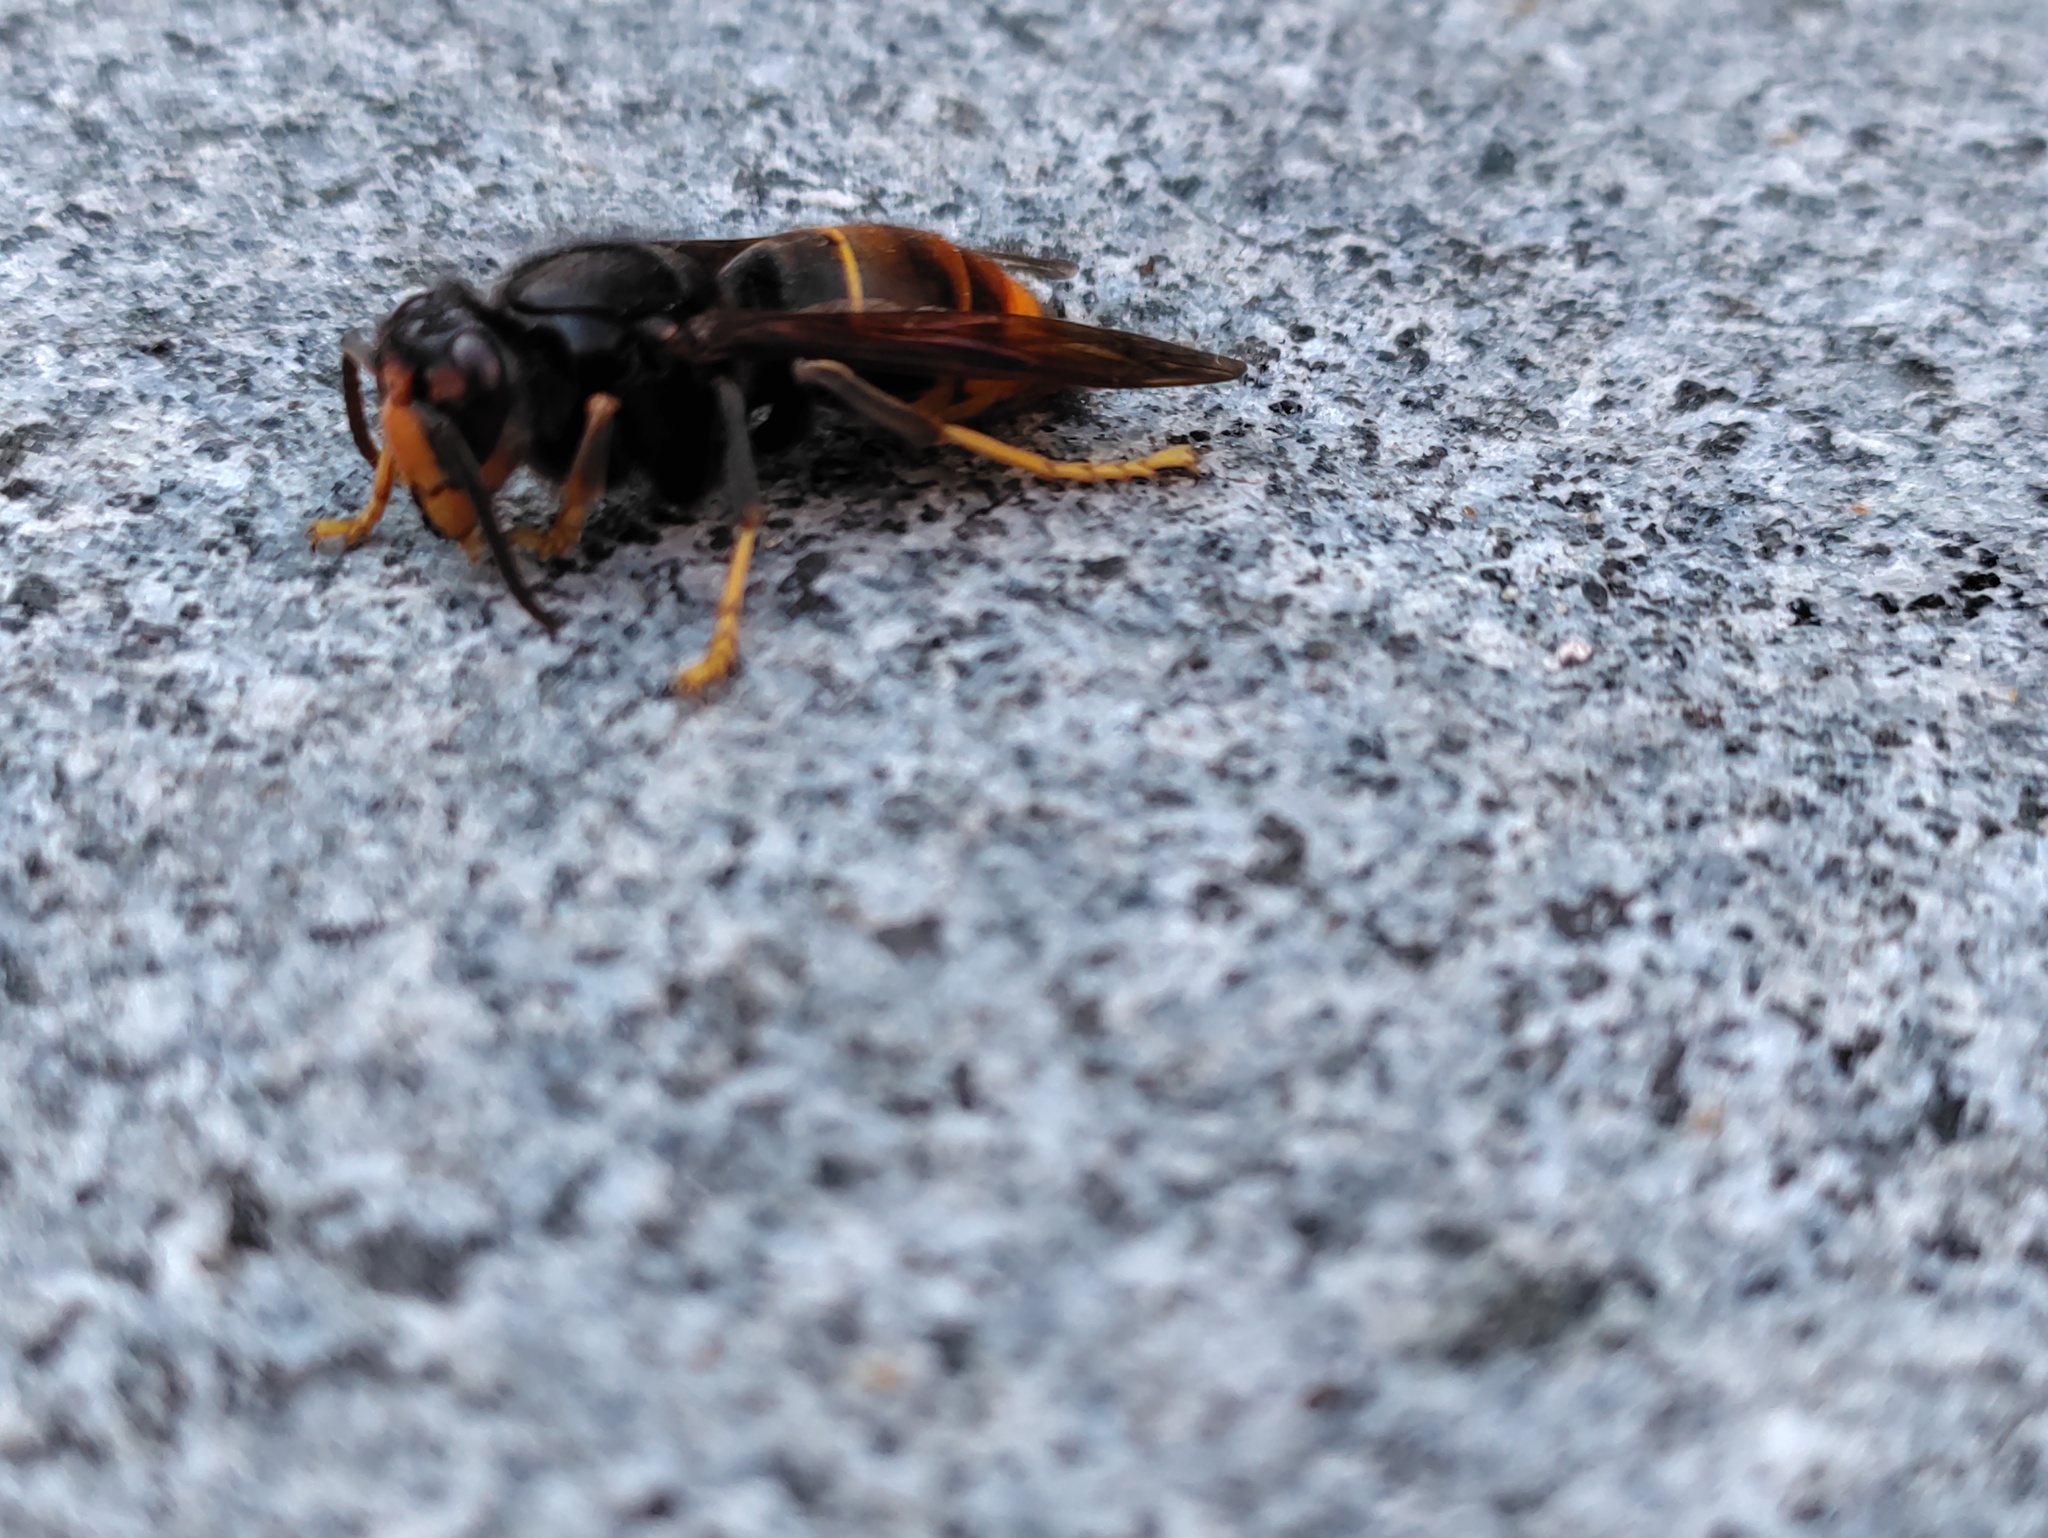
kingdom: Animalia
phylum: Arthropoda
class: Insecta
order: Hymenoptera
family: Vespidae
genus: Vespa
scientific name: Vespa velutina
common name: Asian hornet
